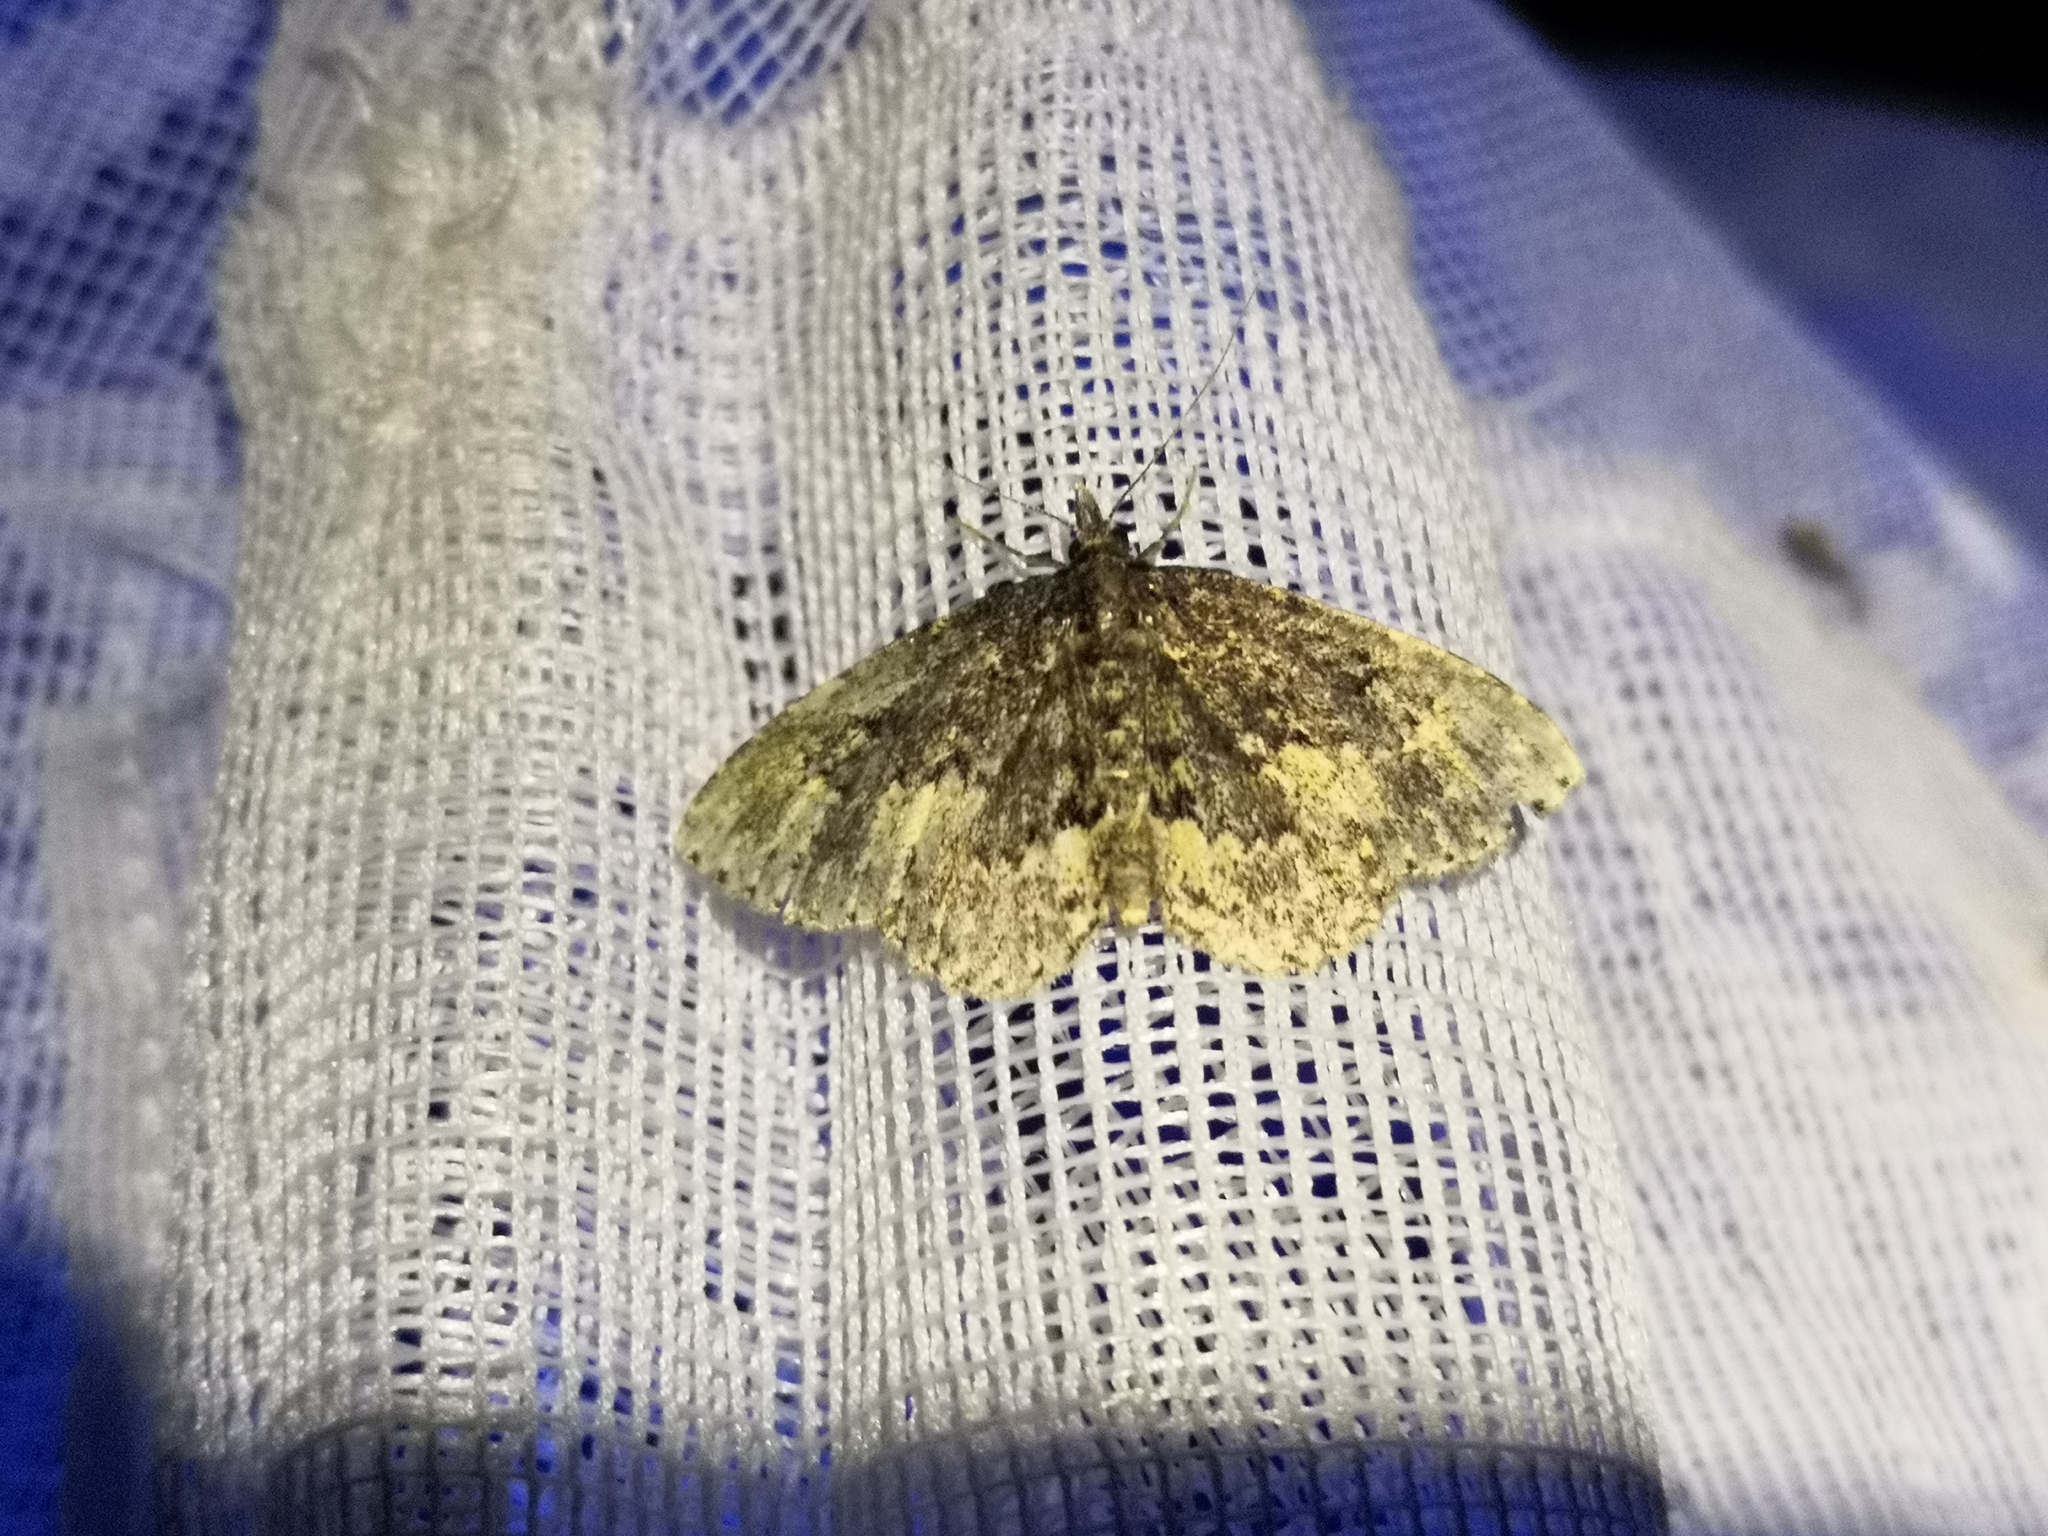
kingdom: Animalia
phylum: Arthropoda
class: Insecta
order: Lepidoptera
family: Erebidae
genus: Parascotia
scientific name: Parascotia fuliginaria
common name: Waved black
